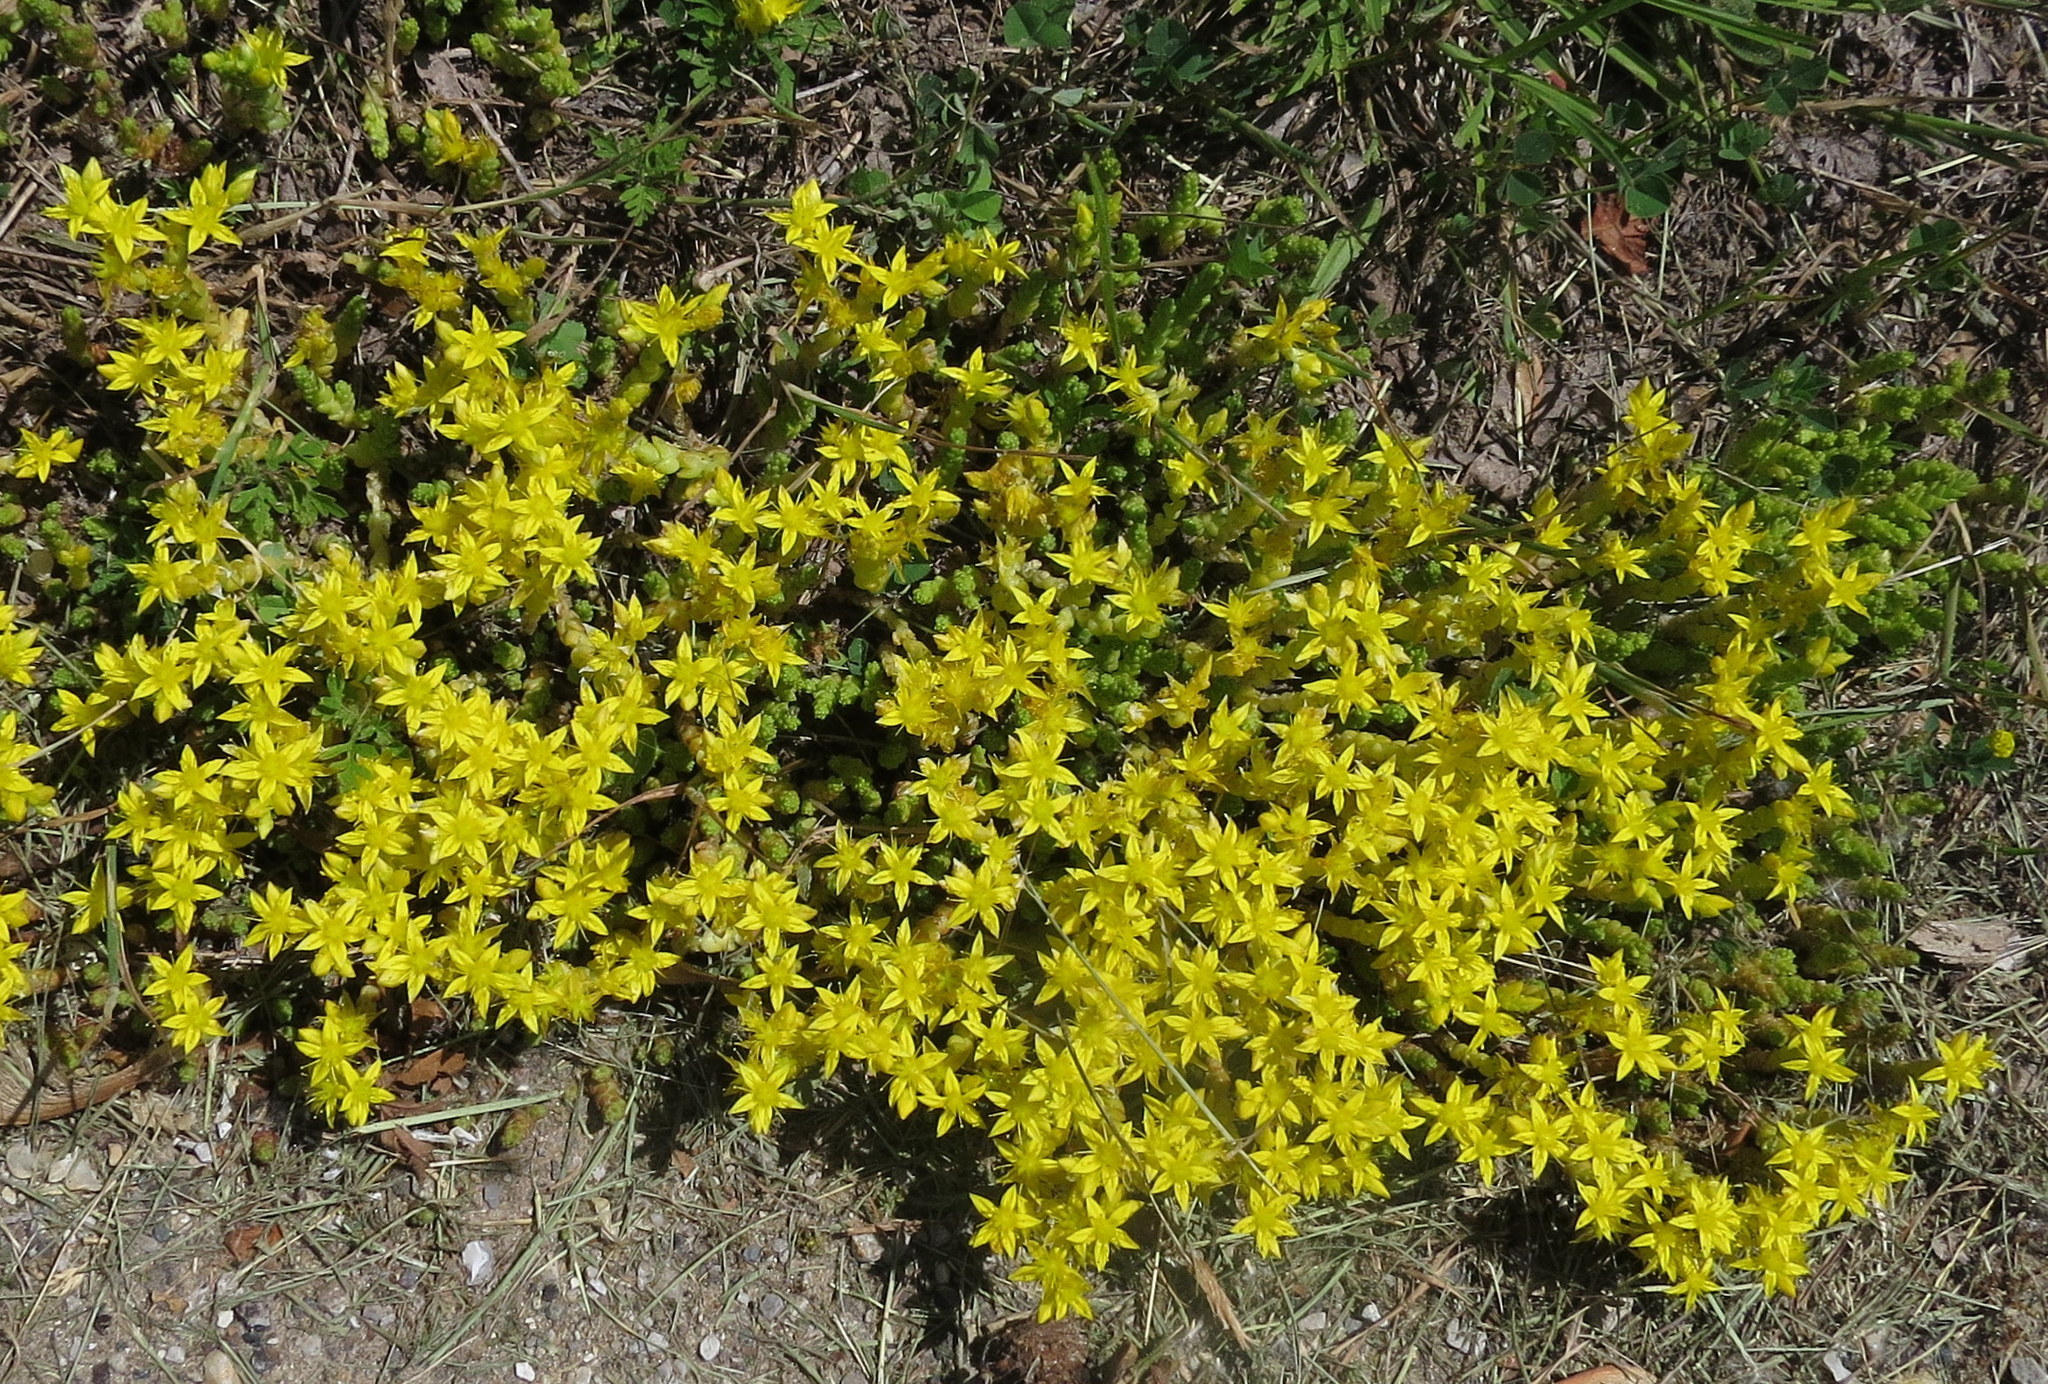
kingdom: Plantae
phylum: Tracheophyta
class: Magnoliopsida
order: Saxifragales
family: Crassulaceae
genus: Sedum
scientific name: Sedum acre
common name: Biting stonecrop
